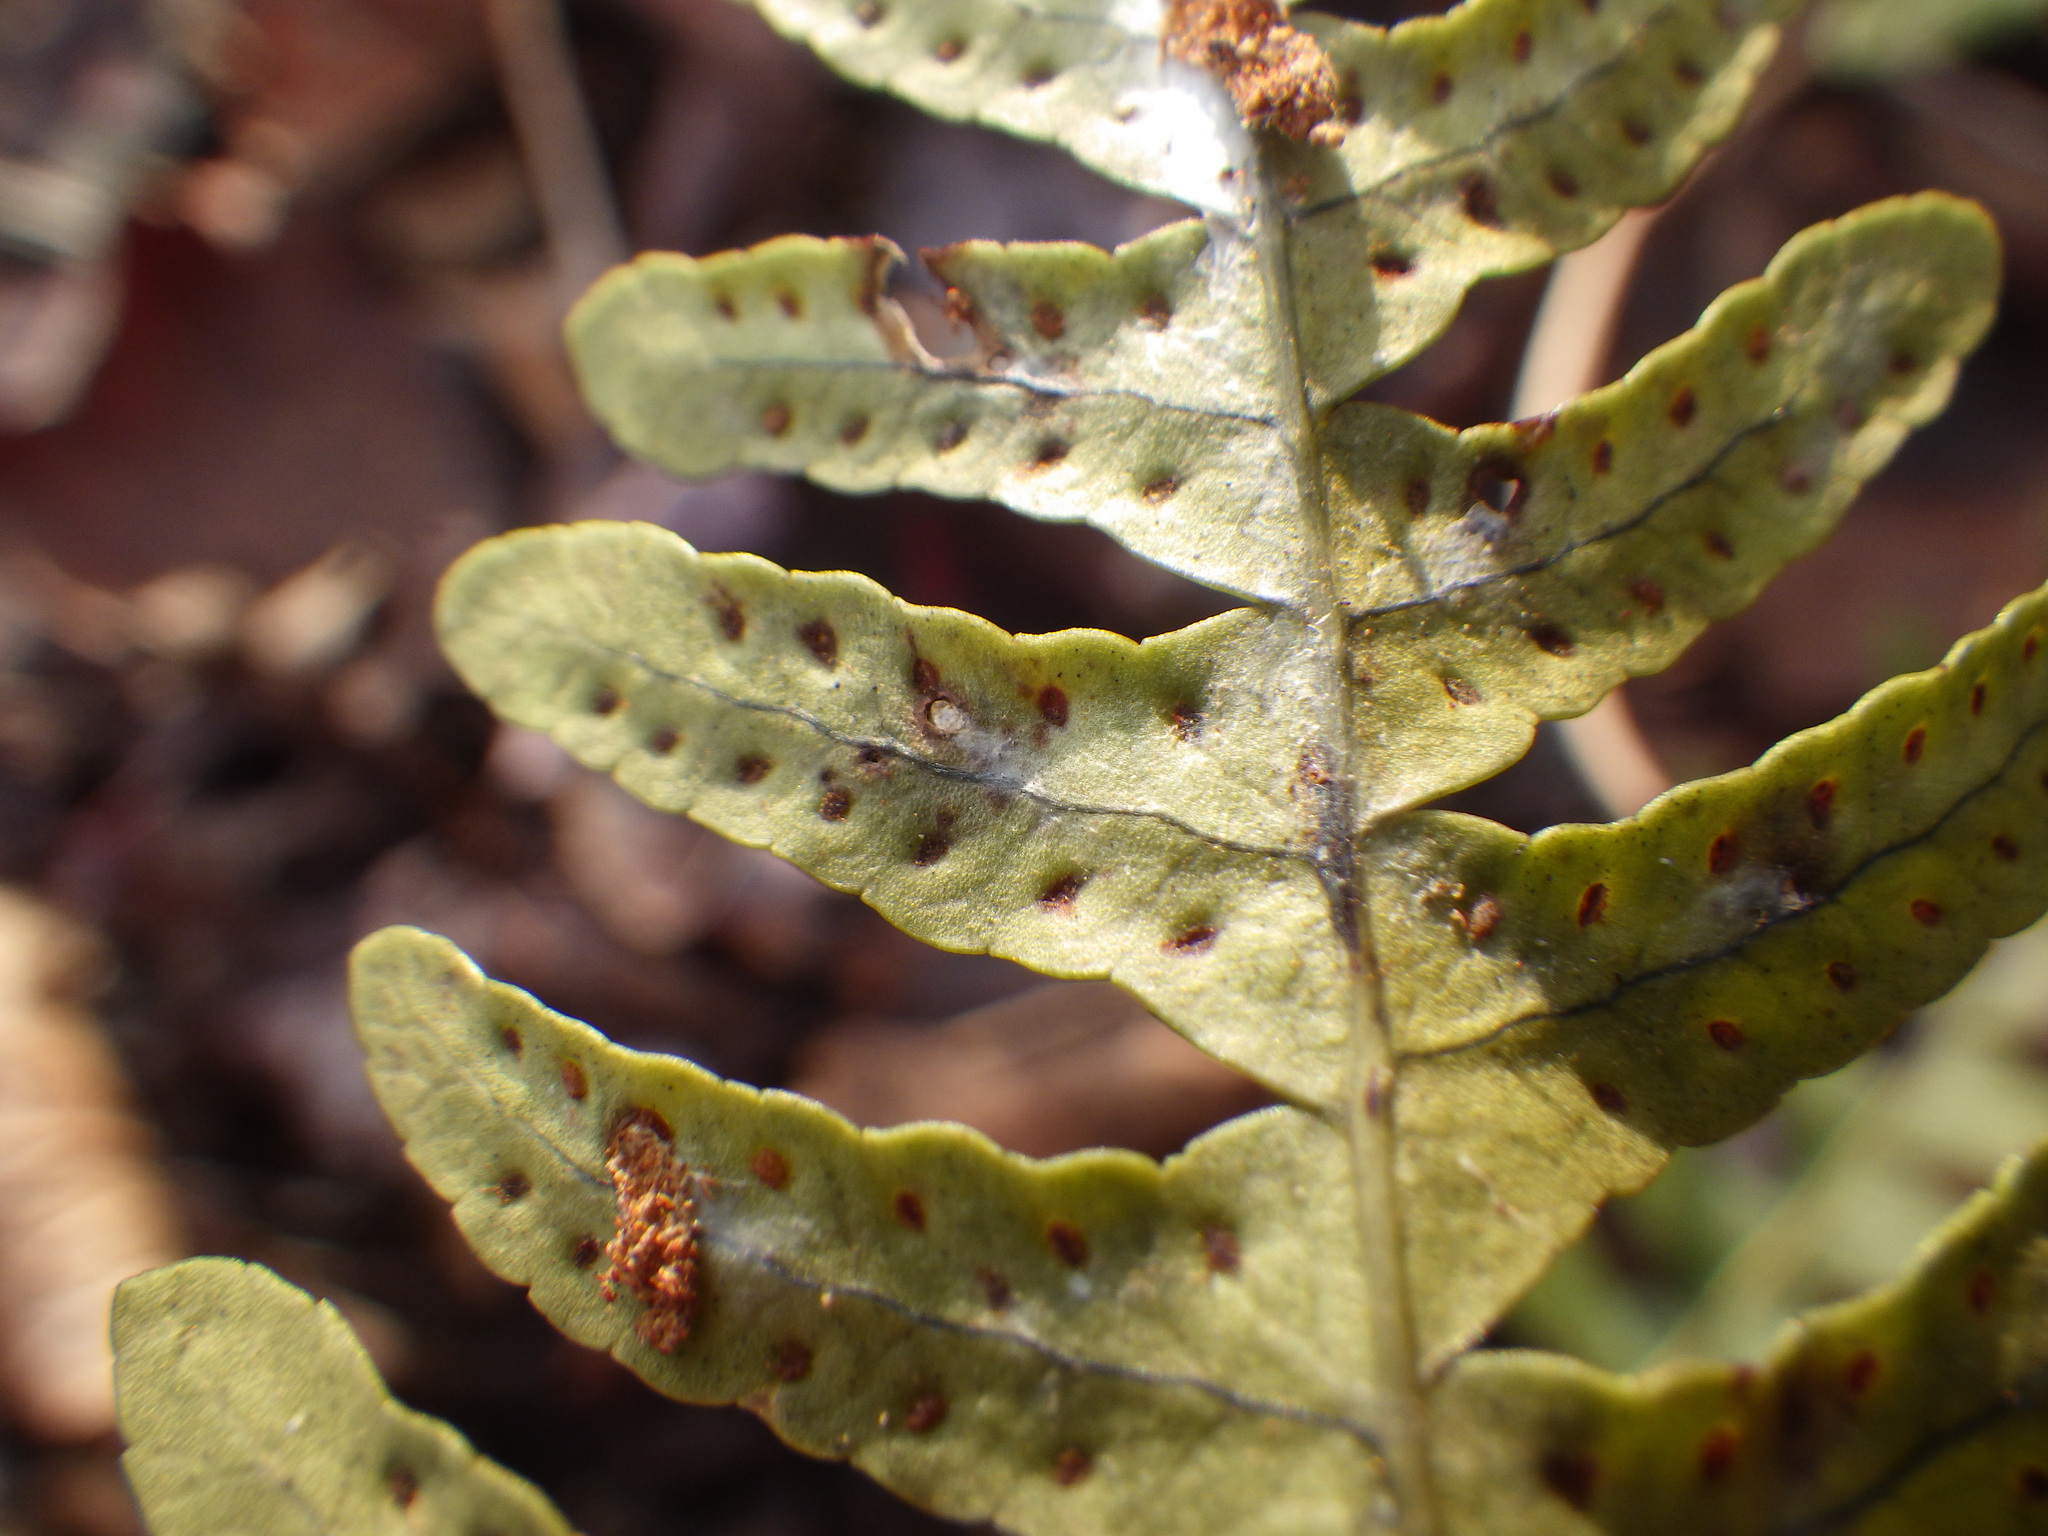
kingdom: Plantae
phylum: Tracheophyta
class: Polypodiopsida
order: Polypodiales
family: Polypodiaceae
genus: Polypodium
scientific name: Polypodium appalachianum
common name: Appalachian polypody
